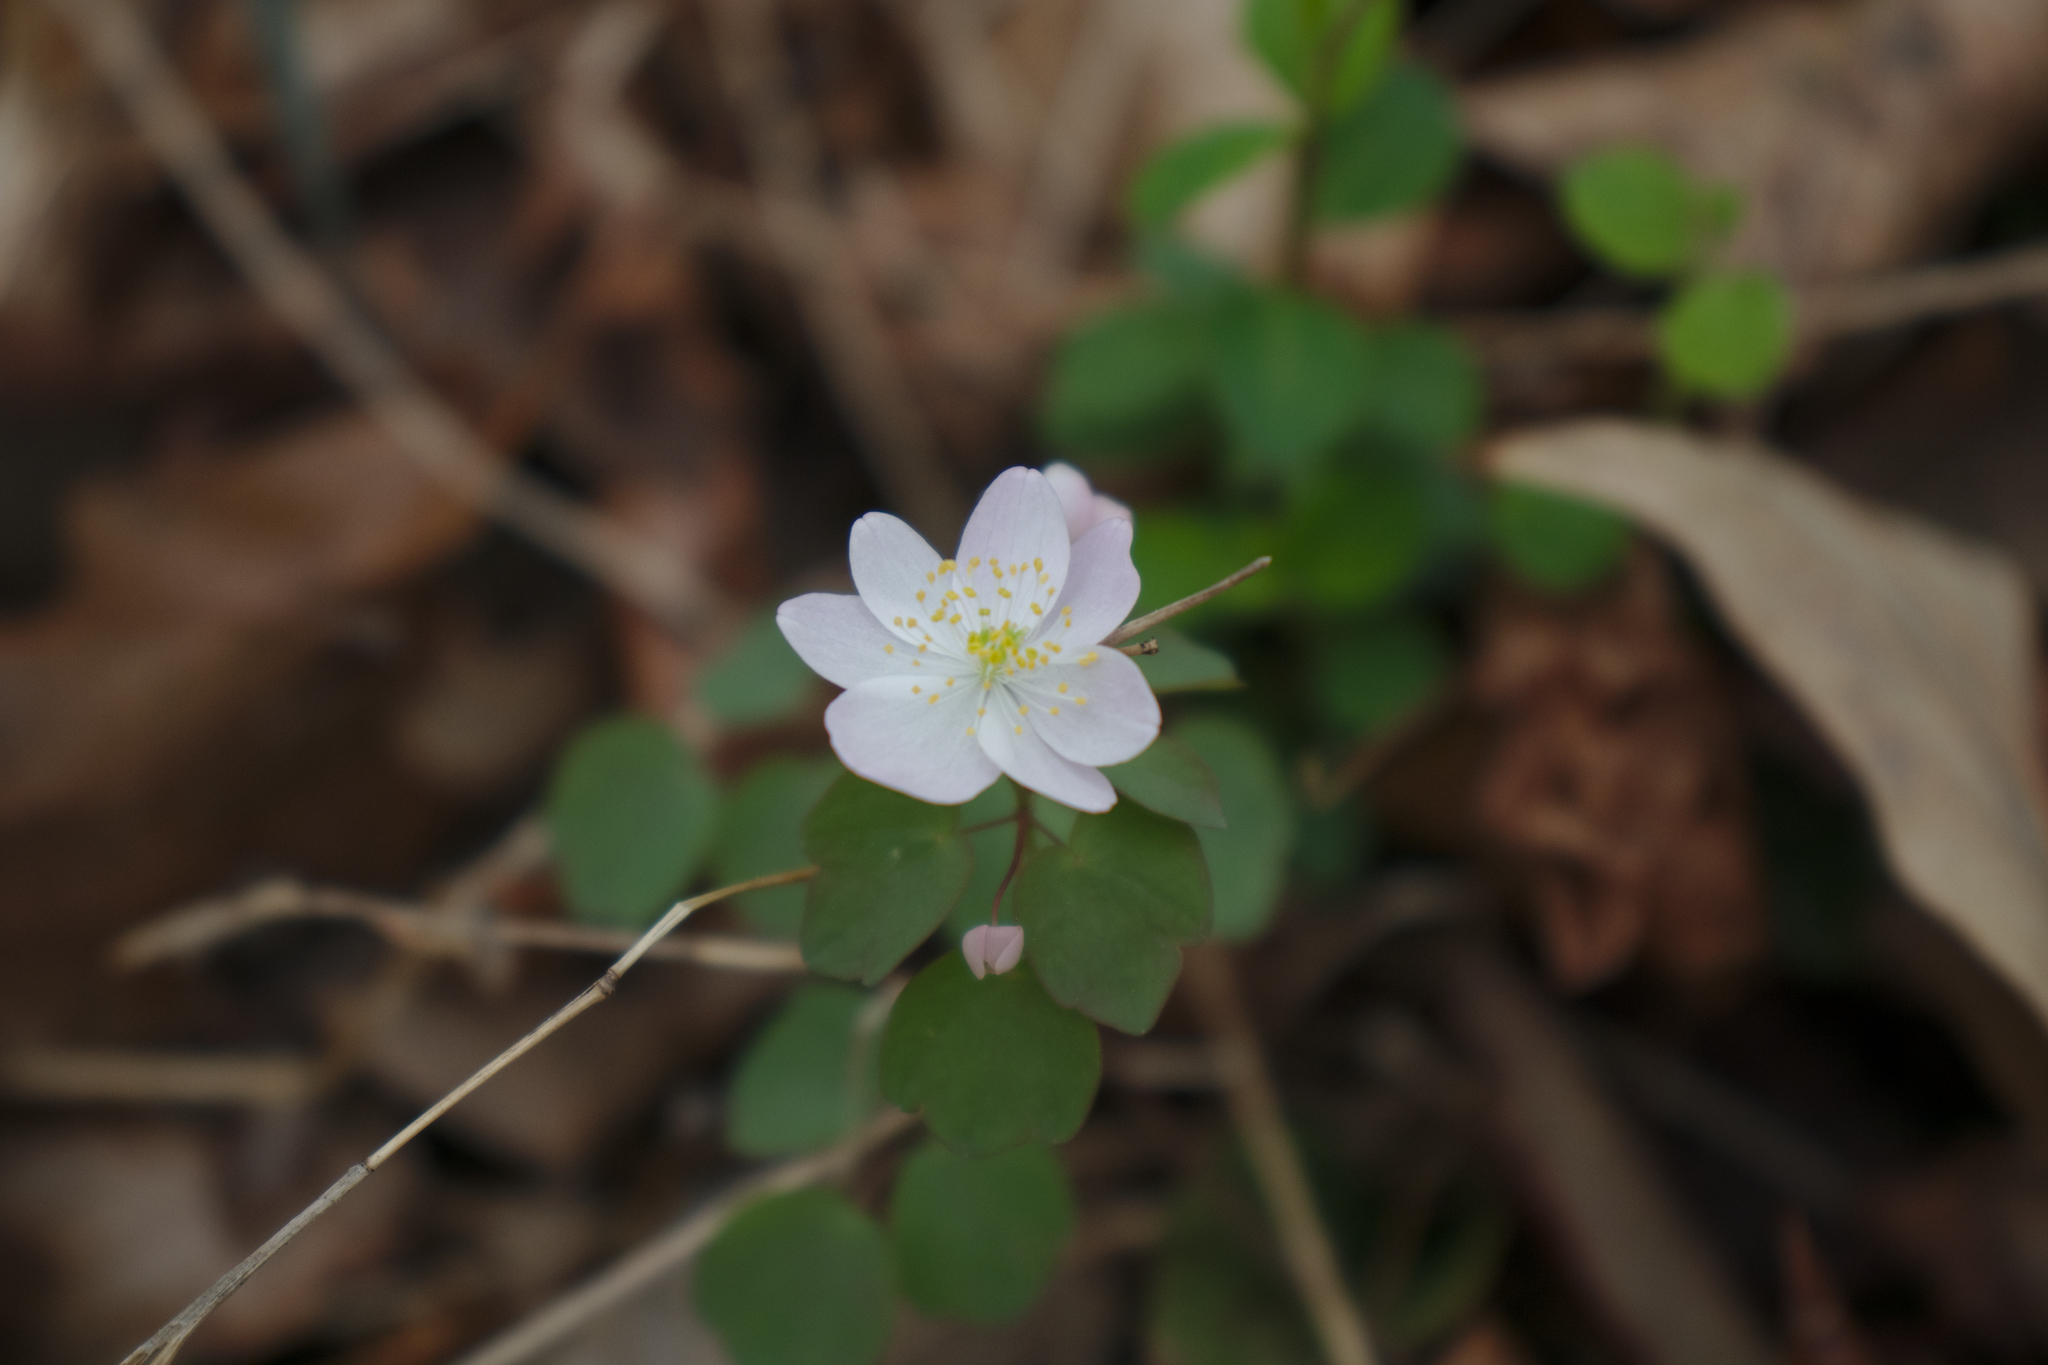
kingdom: Plantae
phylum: Tracheophyta
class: Magnoliopsida
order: Ranunculales
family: Ranunculaceae
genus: Thalictrum
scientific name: Thalictrum thalictroides
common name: Rue-anemone
